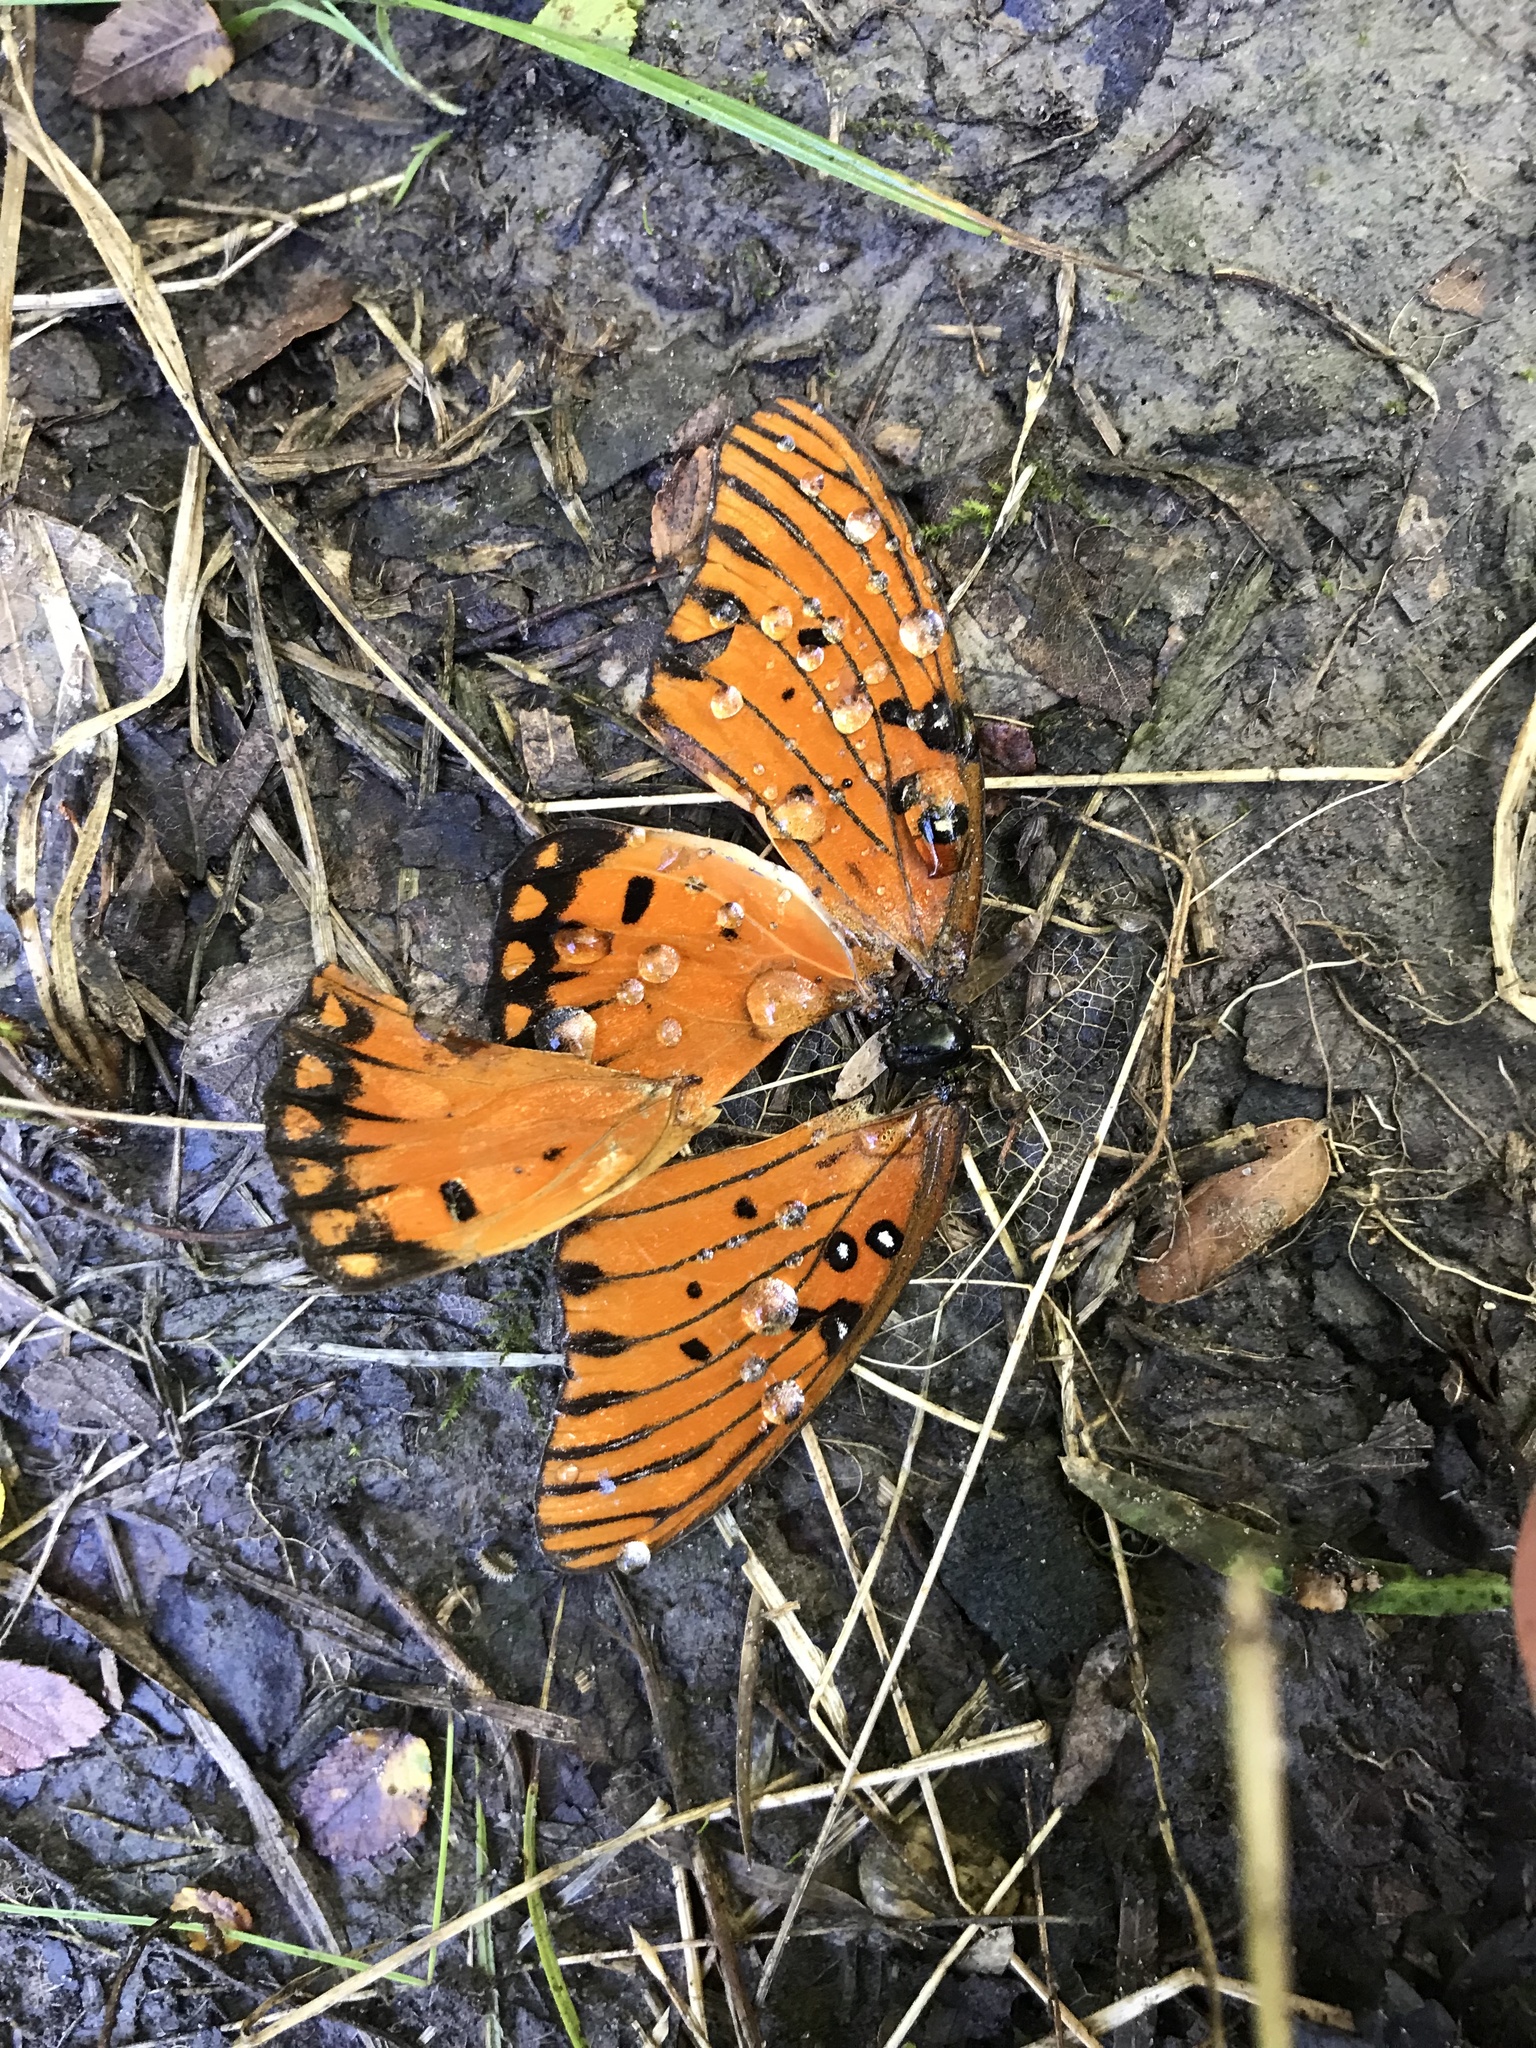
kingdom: Animalia
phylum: Arthropoda
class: Insecta
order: Lepidoptera
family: Nymphalidae
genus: Dione
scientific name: Dione vanillae
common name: Gulf fritillary
